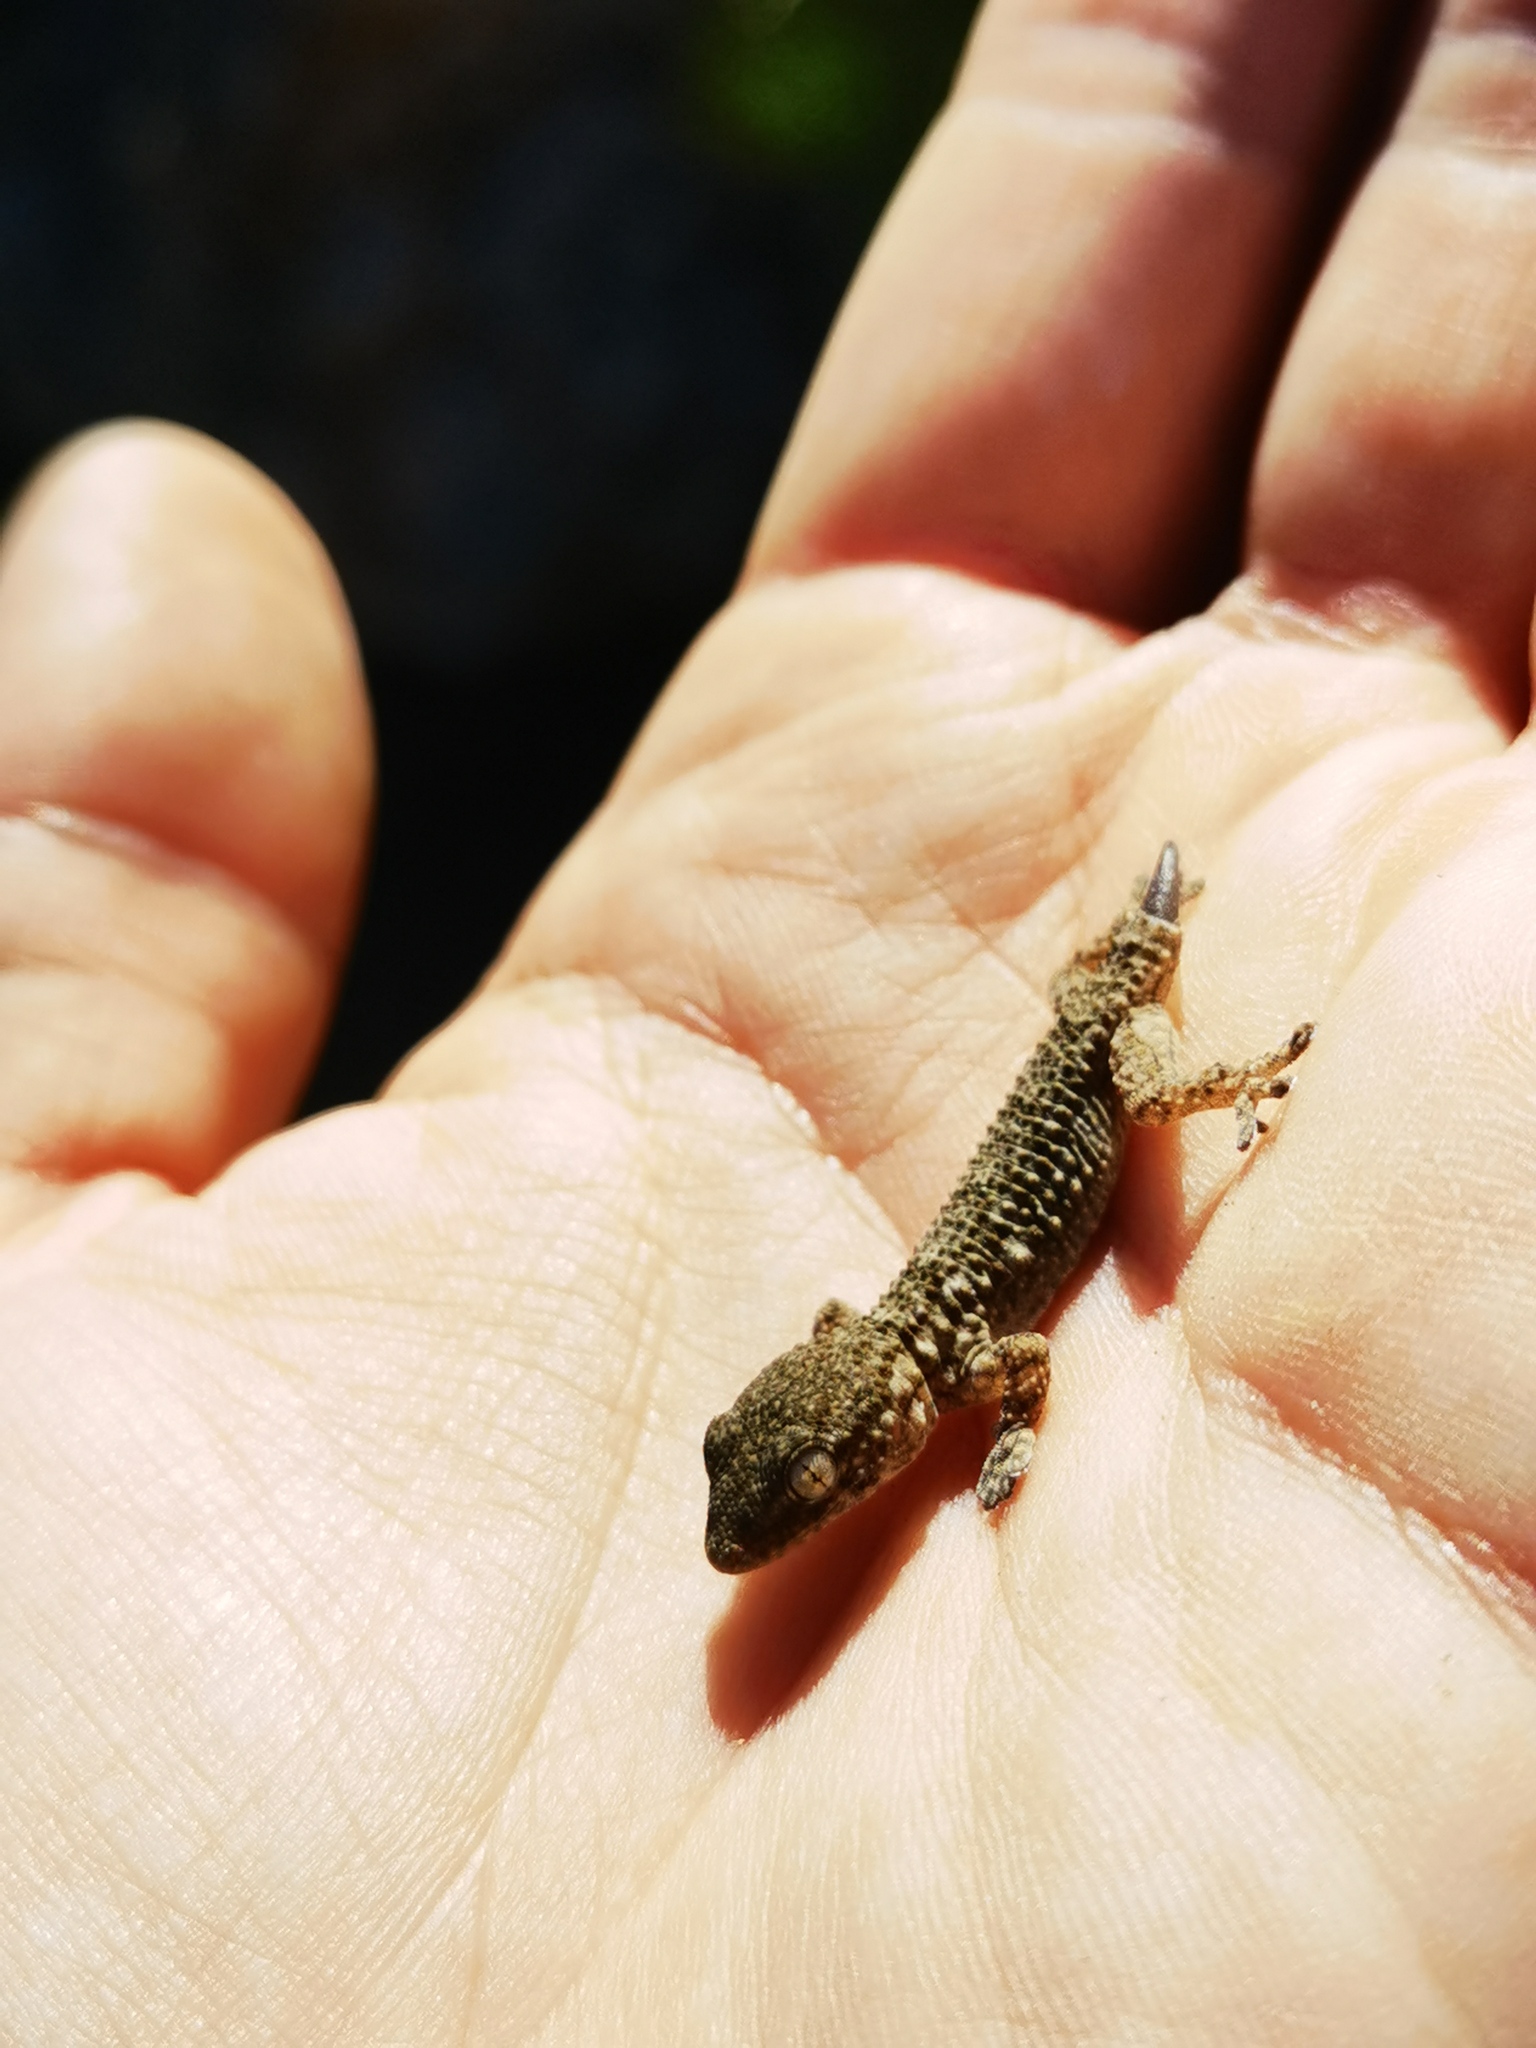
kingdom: Animalia
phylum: Chordata
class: Squamata
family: Phyllodactylidae
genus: Tarentola
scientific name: Tarentola mauritanica
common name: Moorish gecko
